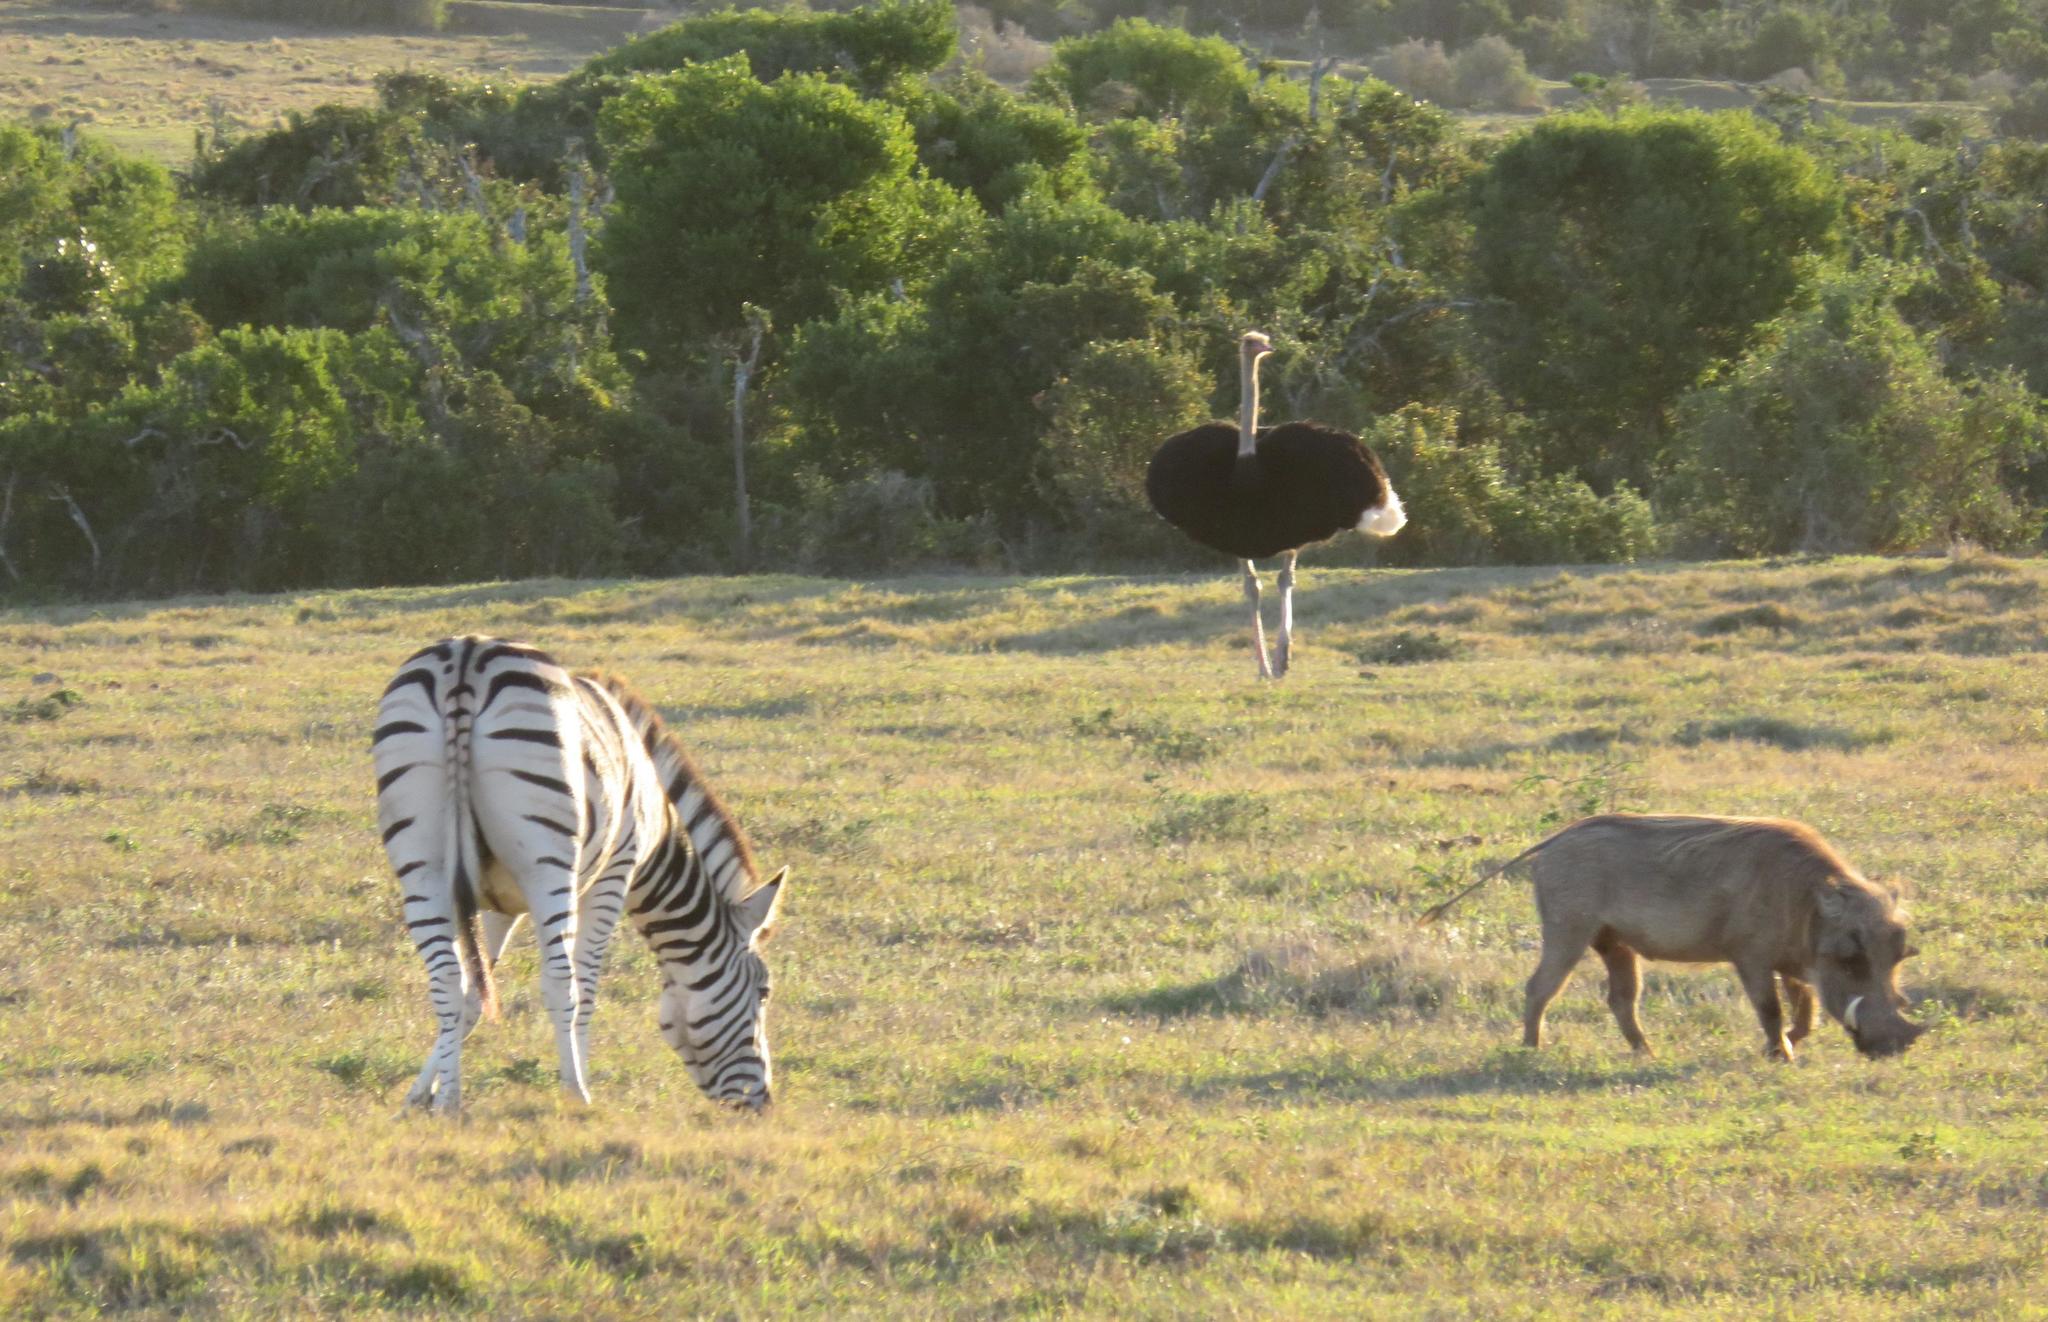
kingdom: Animalia
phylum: Chordata
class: Mammalia
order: Perissodactyla
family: Equidae
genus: Equus
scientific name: Equus quagga
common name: Plains zebra
